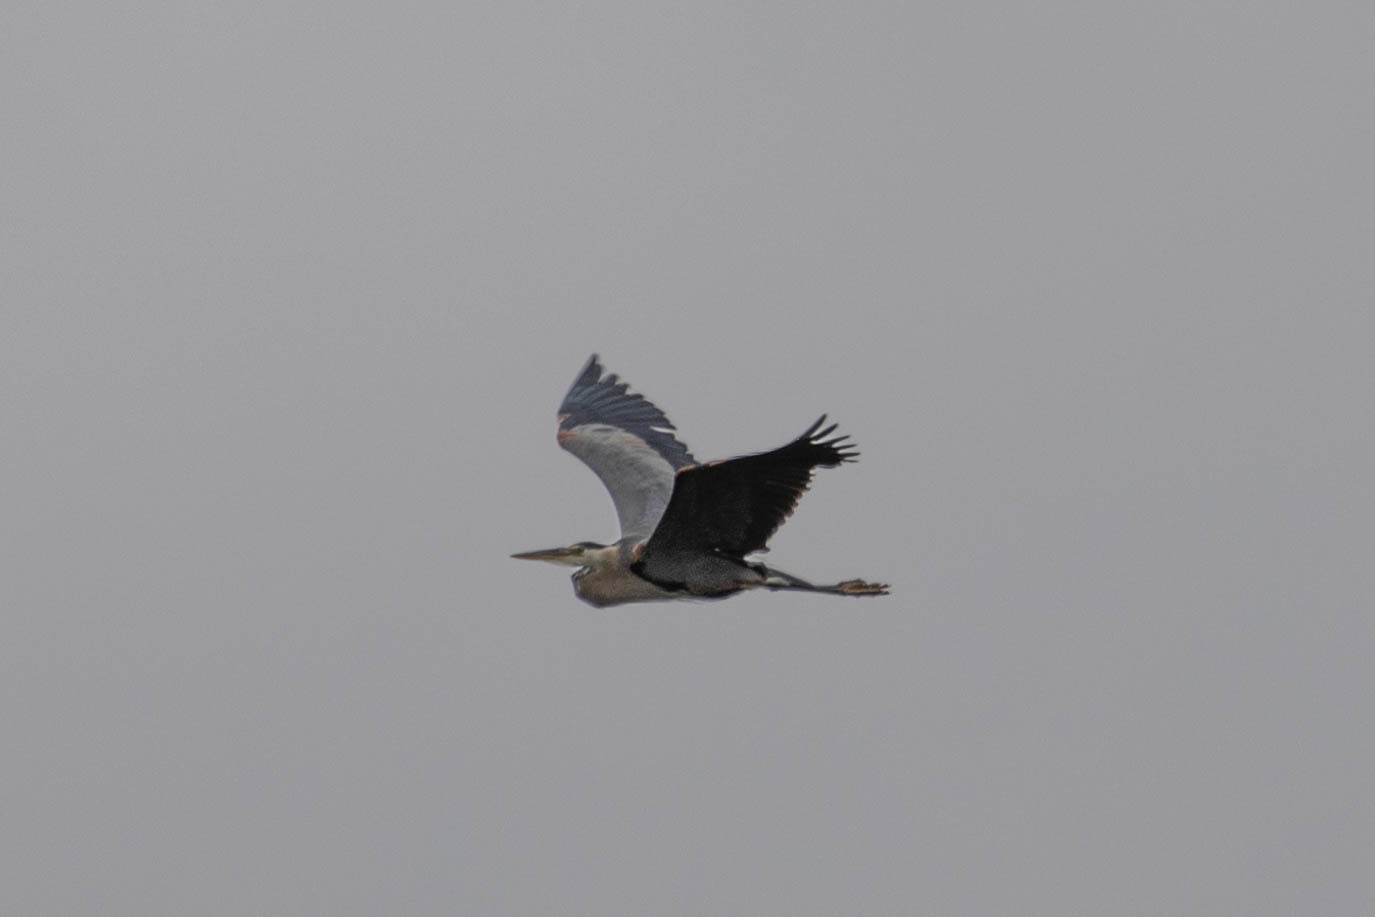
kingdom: Animalia
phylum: Chordata
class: Aves
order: Pelecaniformes
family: Ardeidae
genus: Ardea
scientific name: Ardea herodias
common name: Great blue heron
